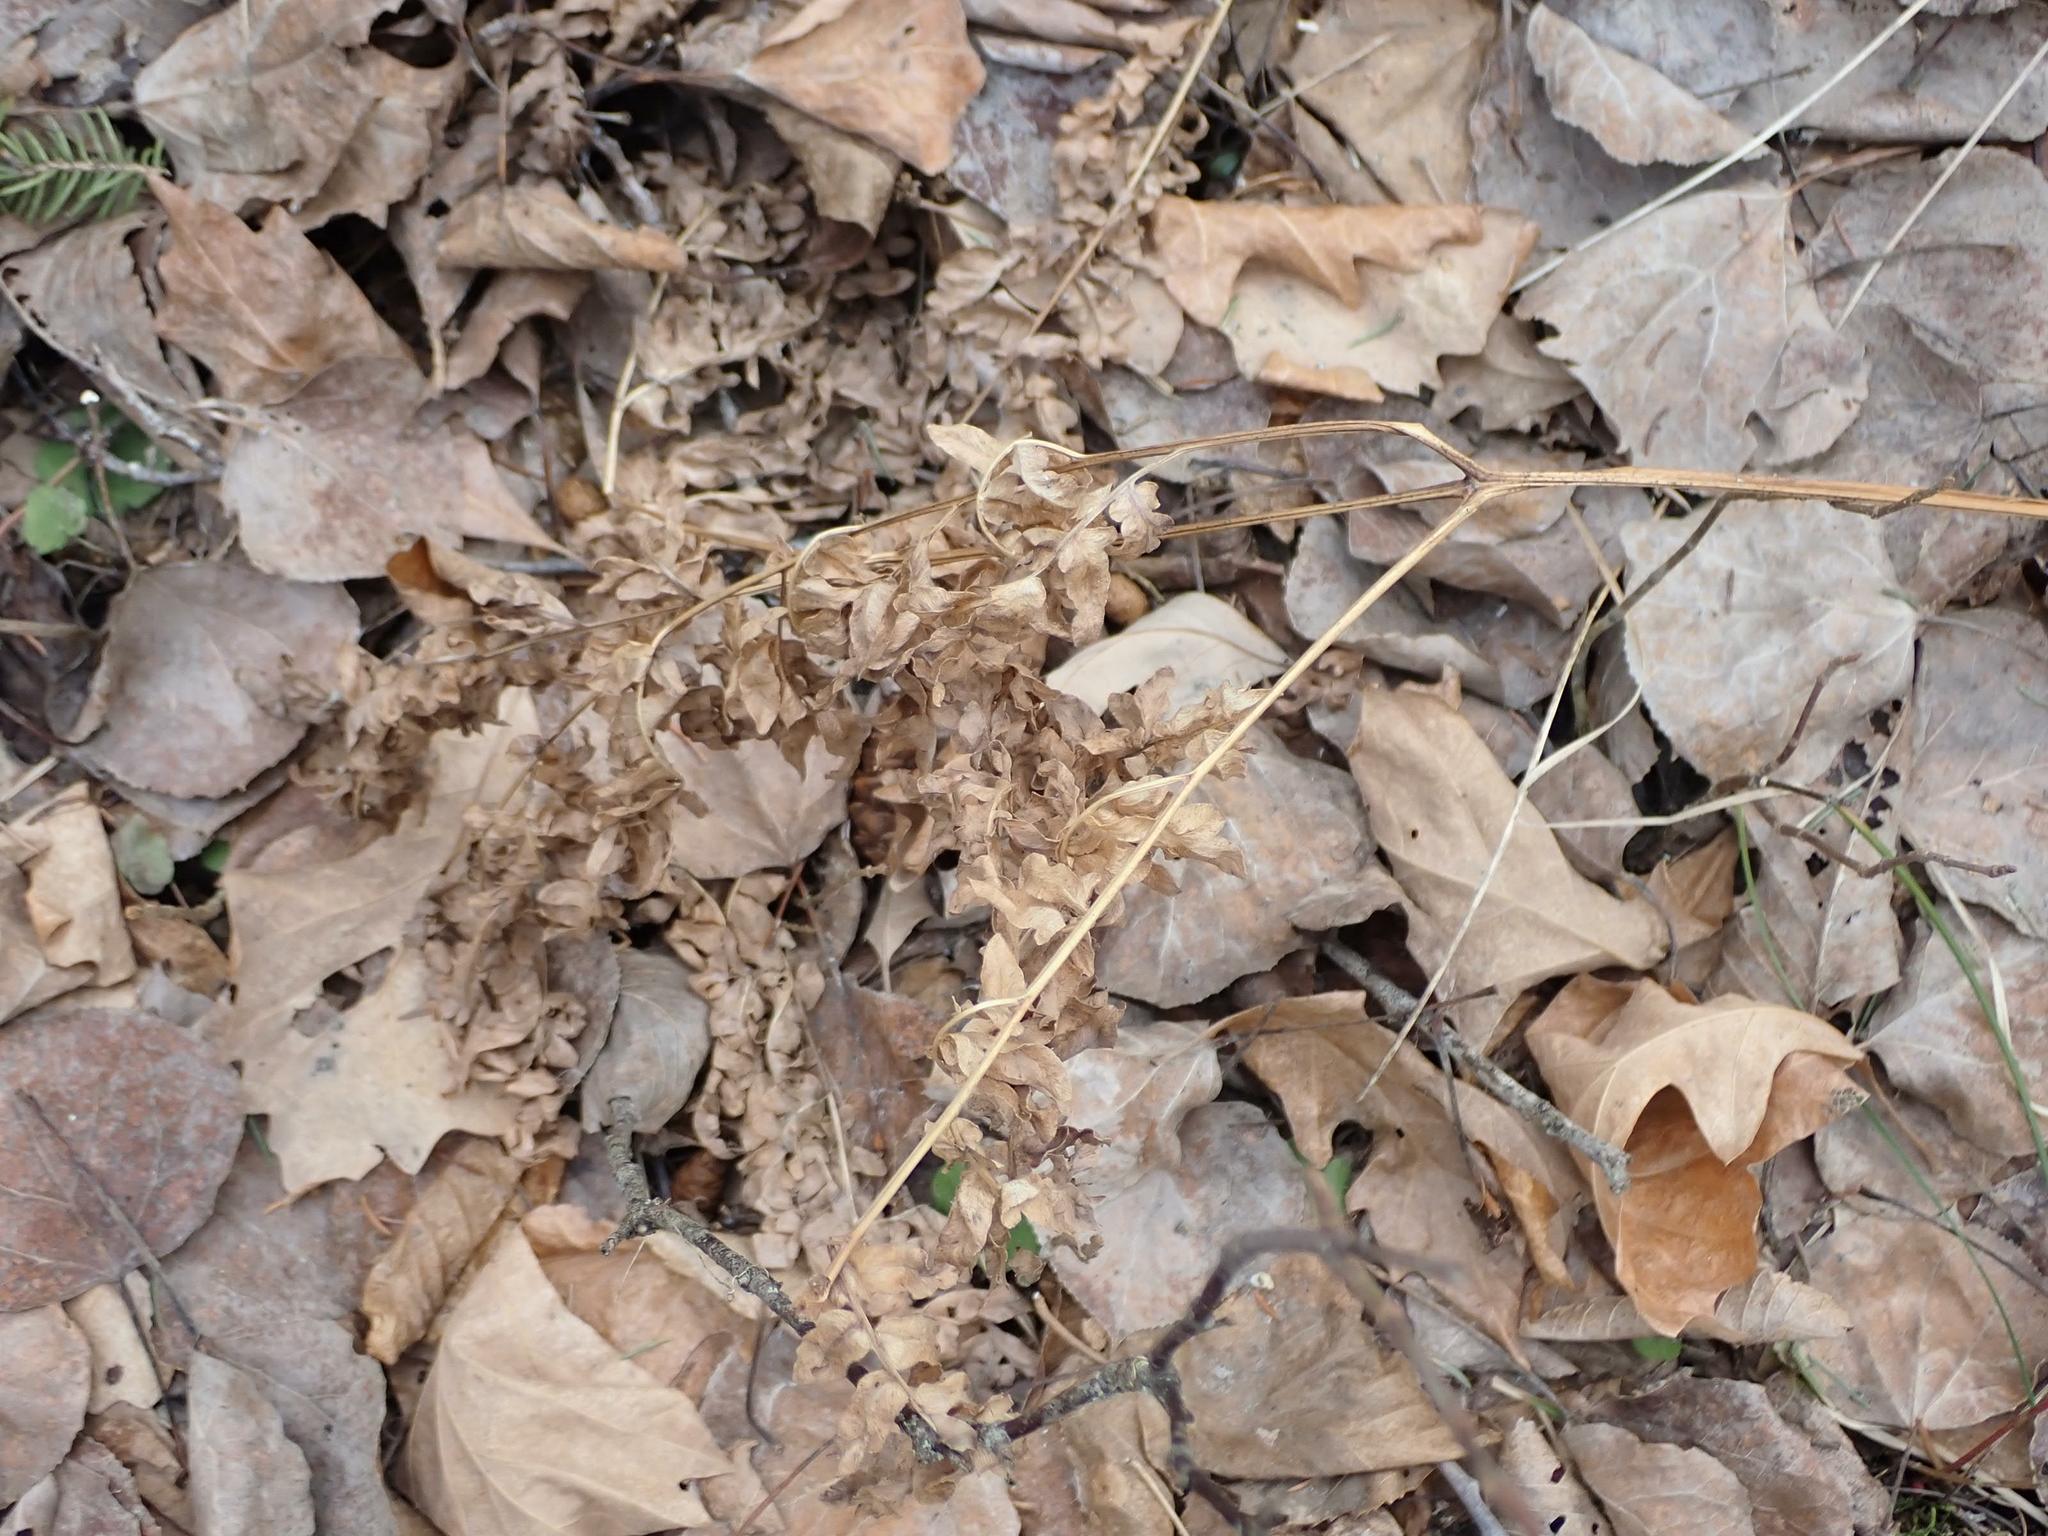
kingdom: Plantae
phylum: Tracheophyta
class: Polypodiopsida
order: Polypodiales
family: Dennstaedtiaceae
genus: Pteridium
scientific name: Pteridium aquilinum
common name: Bracken
